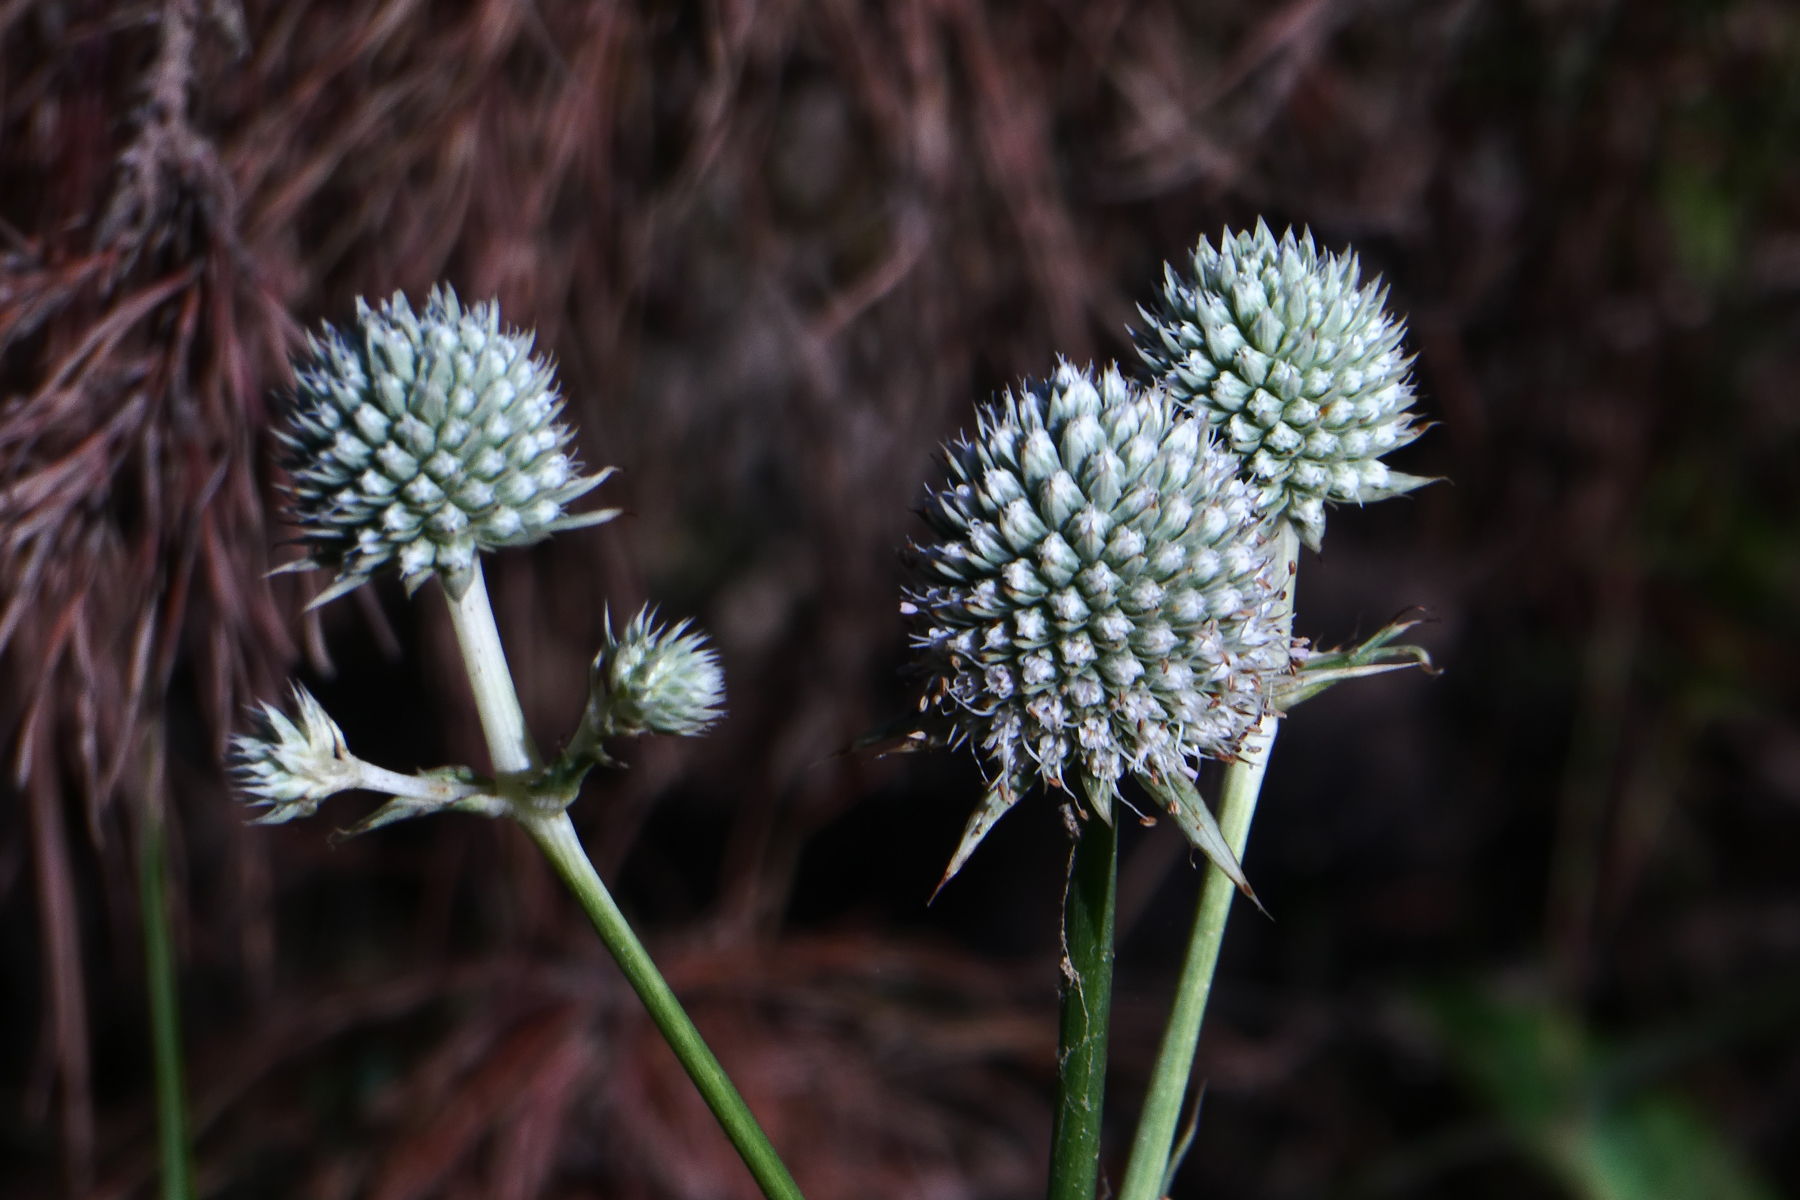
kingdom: Plantae
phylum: Tracheophyta
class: Magnoliopsida
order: Apiales
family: Apiaceae
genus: Eryngium
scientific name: Eryngium yuccifolium
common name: Button eryngo
